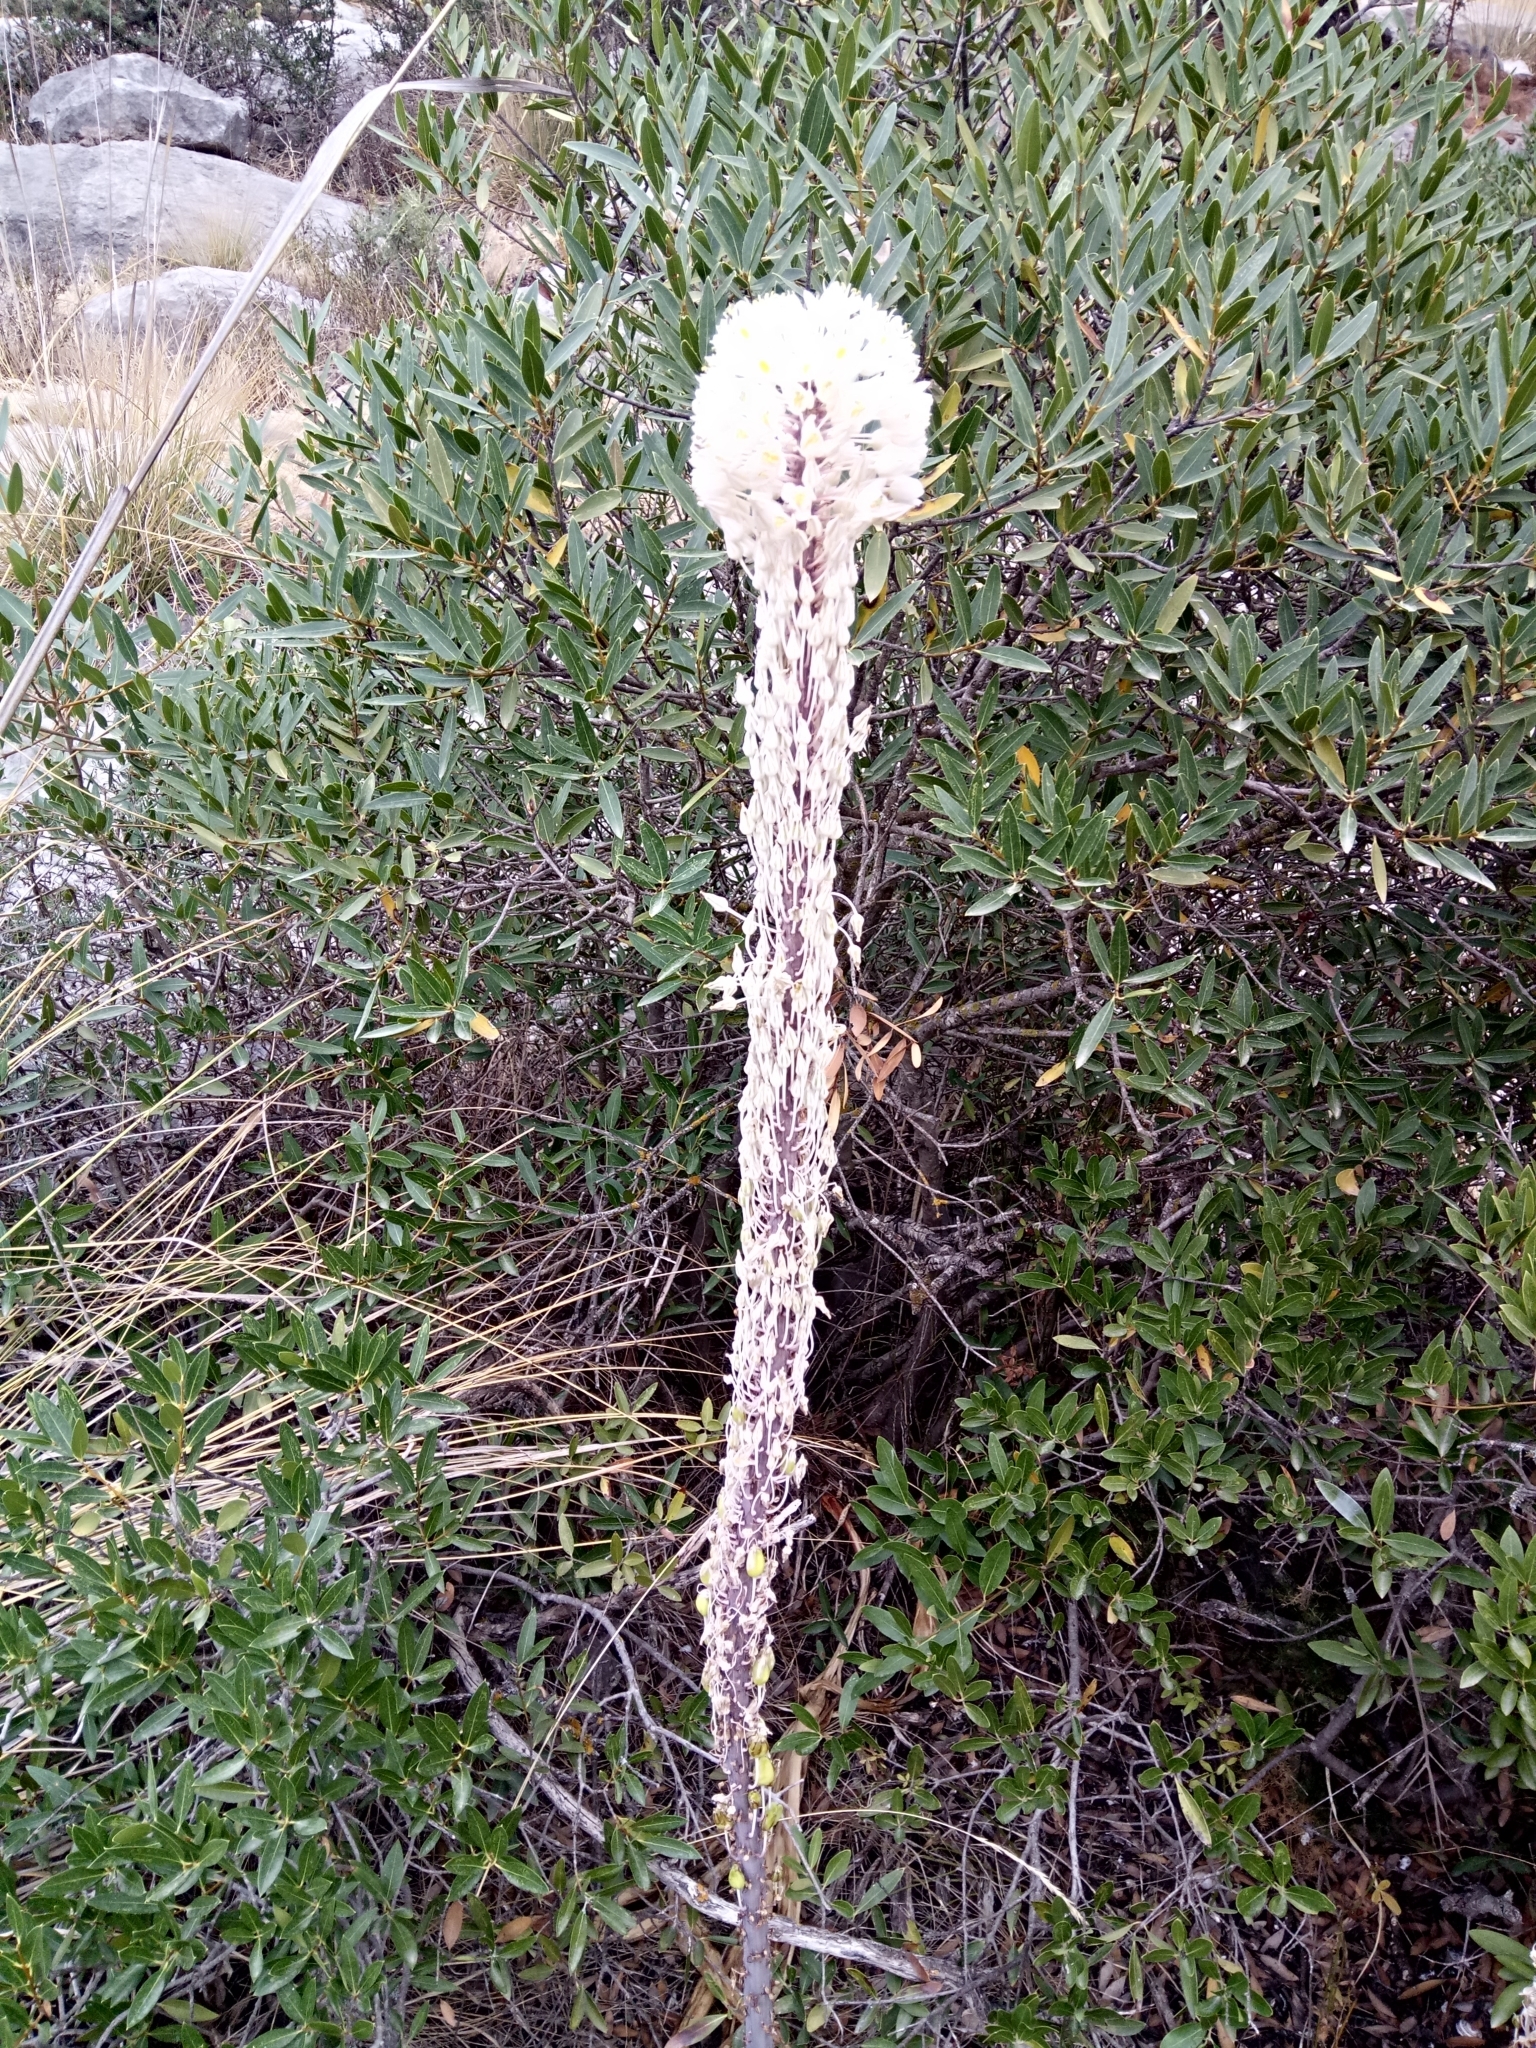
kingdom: Plantae
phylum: Tracheophyta
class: Liliopsida
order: Asparagales
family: Asparagaceae
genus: Drimia
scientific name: Drimia numidica
